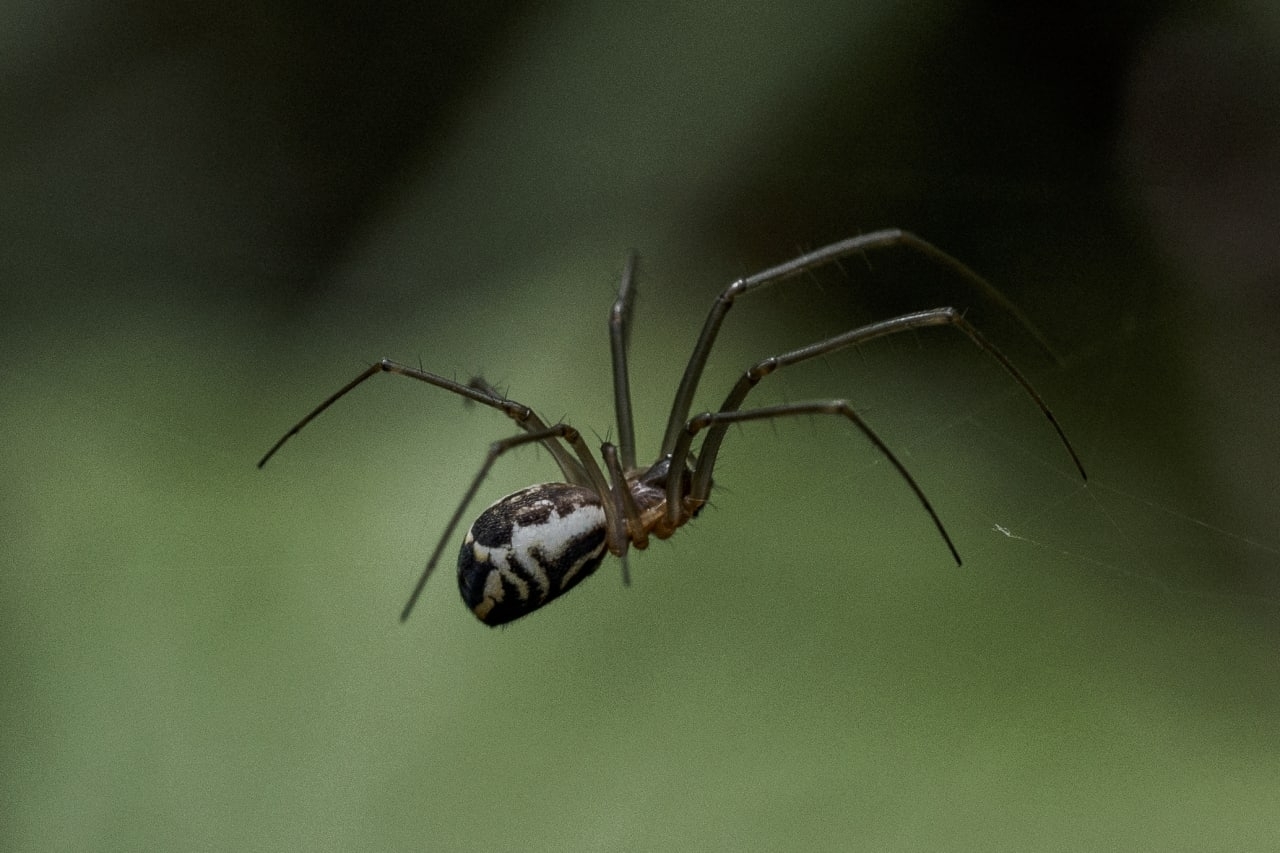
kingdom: Animalia
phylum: Arthropoda
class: Arachnida
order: Araneae
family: Linyphiidae
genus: Neriene
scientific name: Neriene radiata
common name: Filmy dome spider
